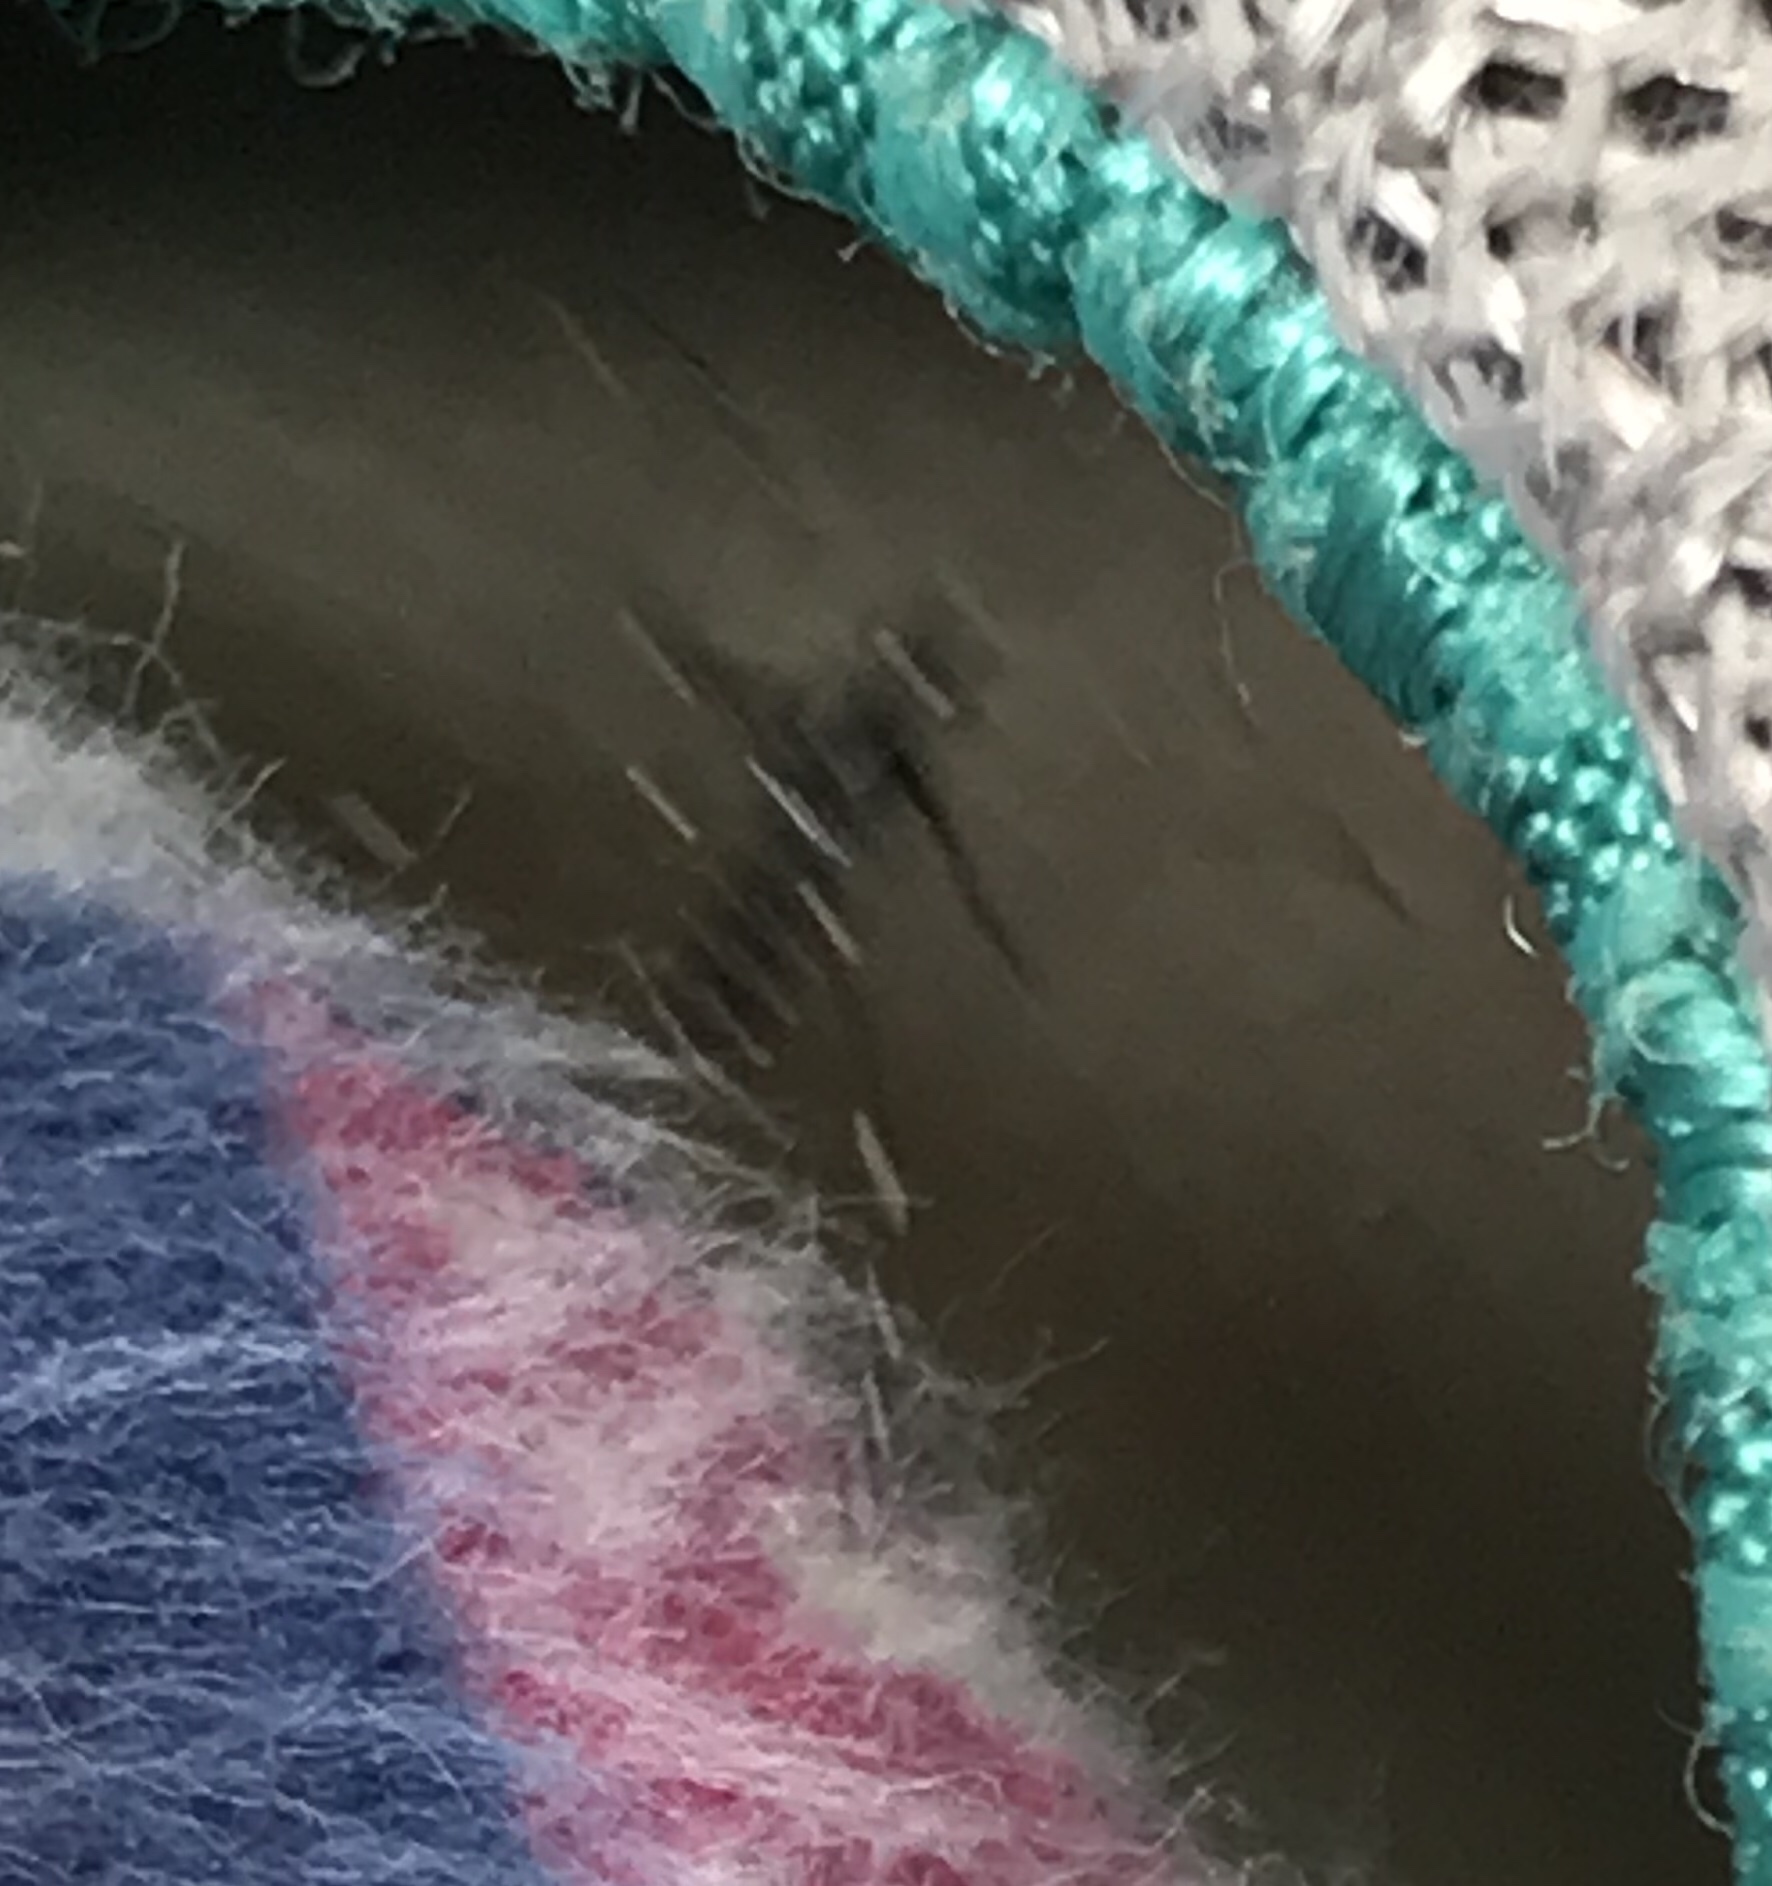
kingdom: Animalia
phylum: Arthropoda
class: Insecta
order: Diptera
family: Culicidae
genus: Aedes
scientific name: Aedes albopictus
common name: Tiger mosquito
